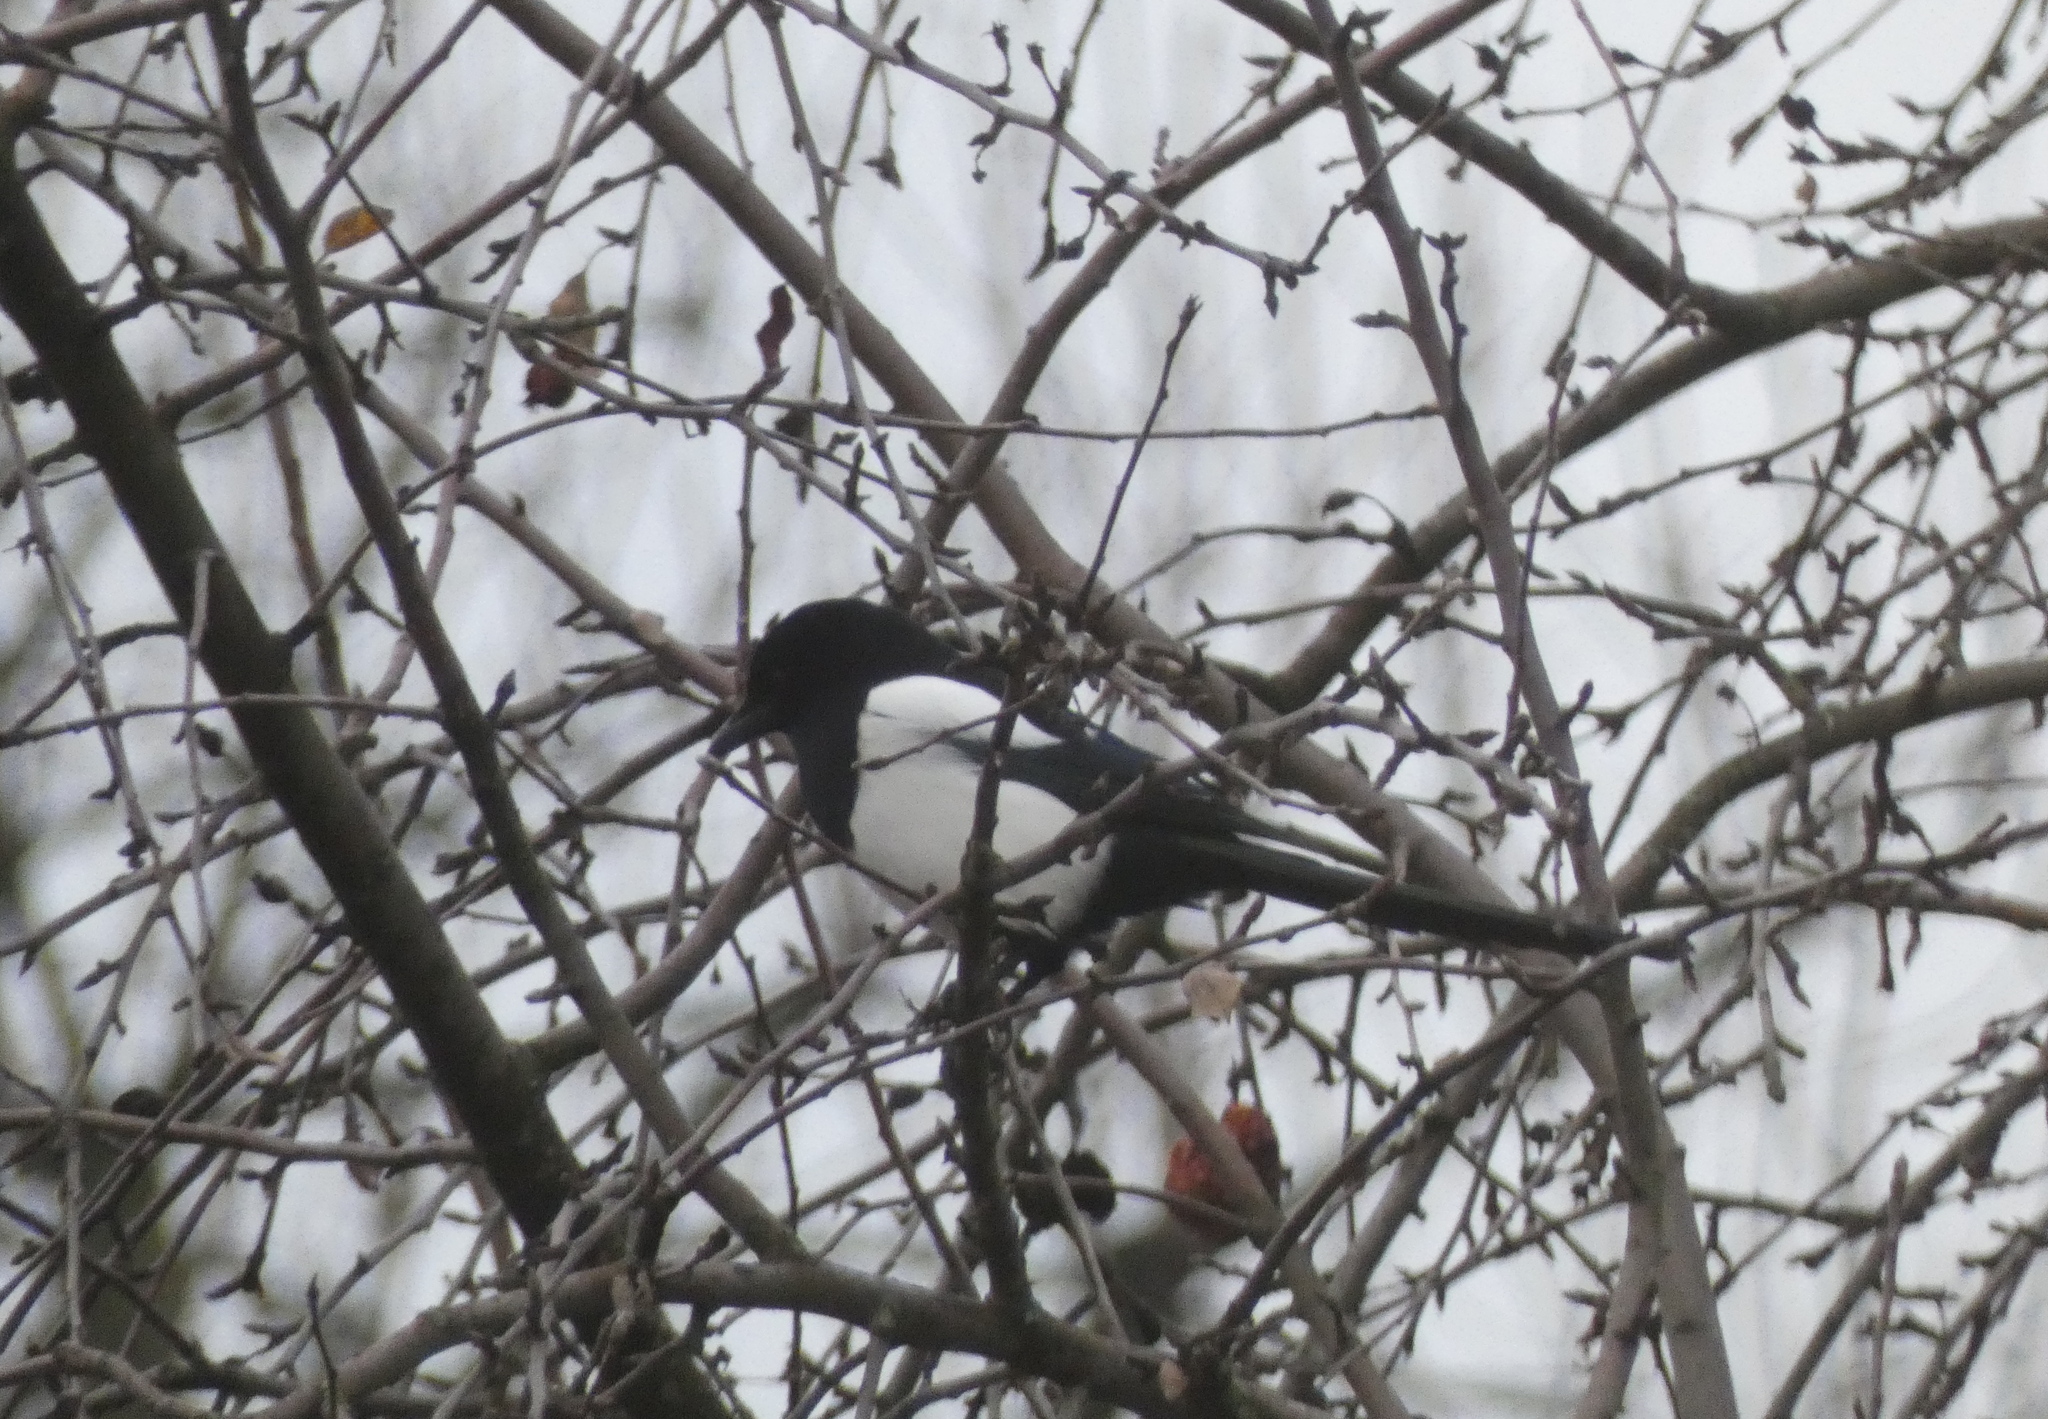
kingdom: Animalia
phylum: Chordata
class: Aves
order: Passeriformes
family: Corvidae
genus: Pica
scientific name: Pica pica
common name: Eurasian magpie
